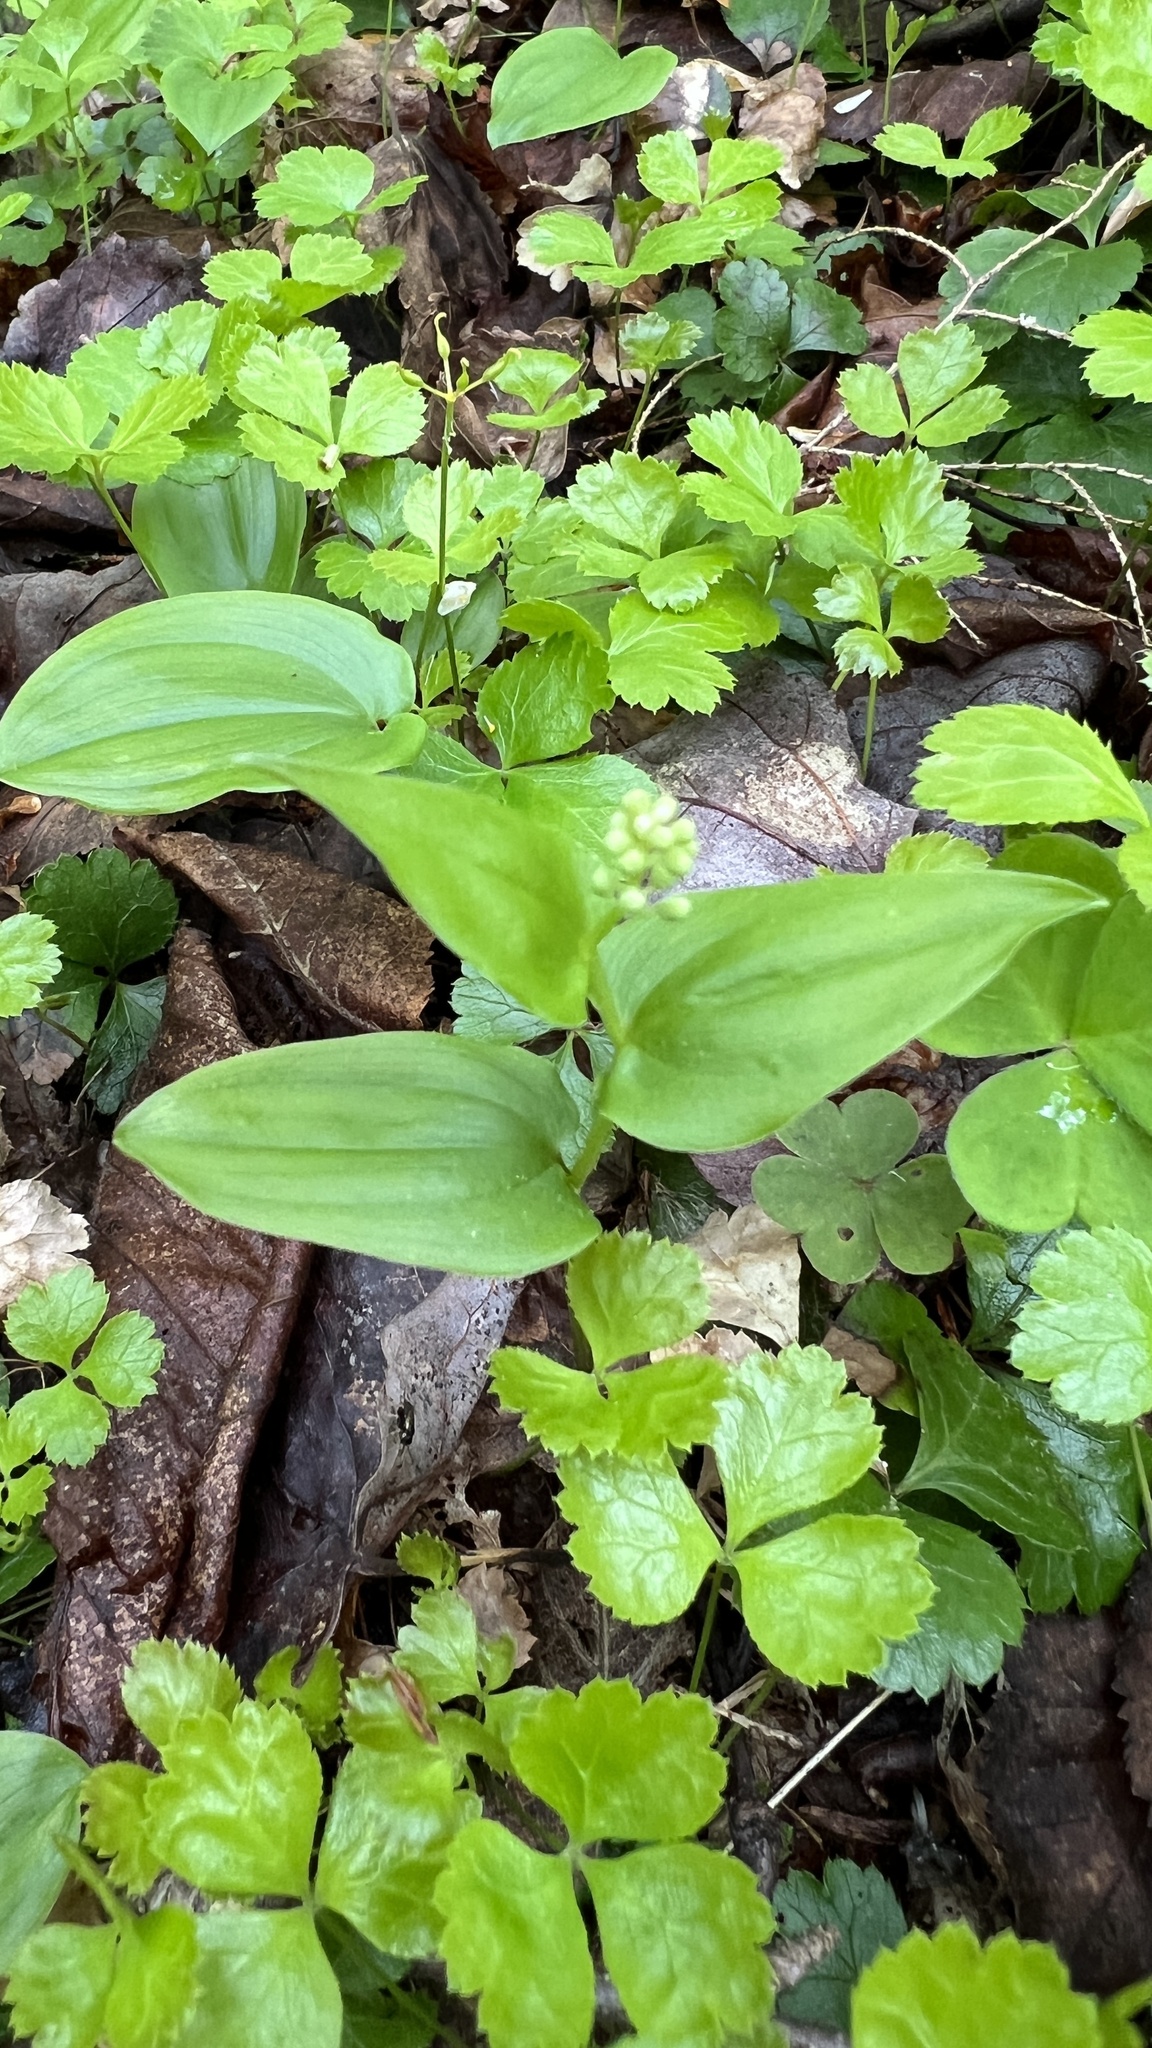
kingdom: Plantae
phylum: Tracheophyta
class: Liliopsida
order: Asparagales
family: Asparagaceae
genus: Maianthemum
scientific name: Maianthemum canadense
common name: False lily-of-the-valley
